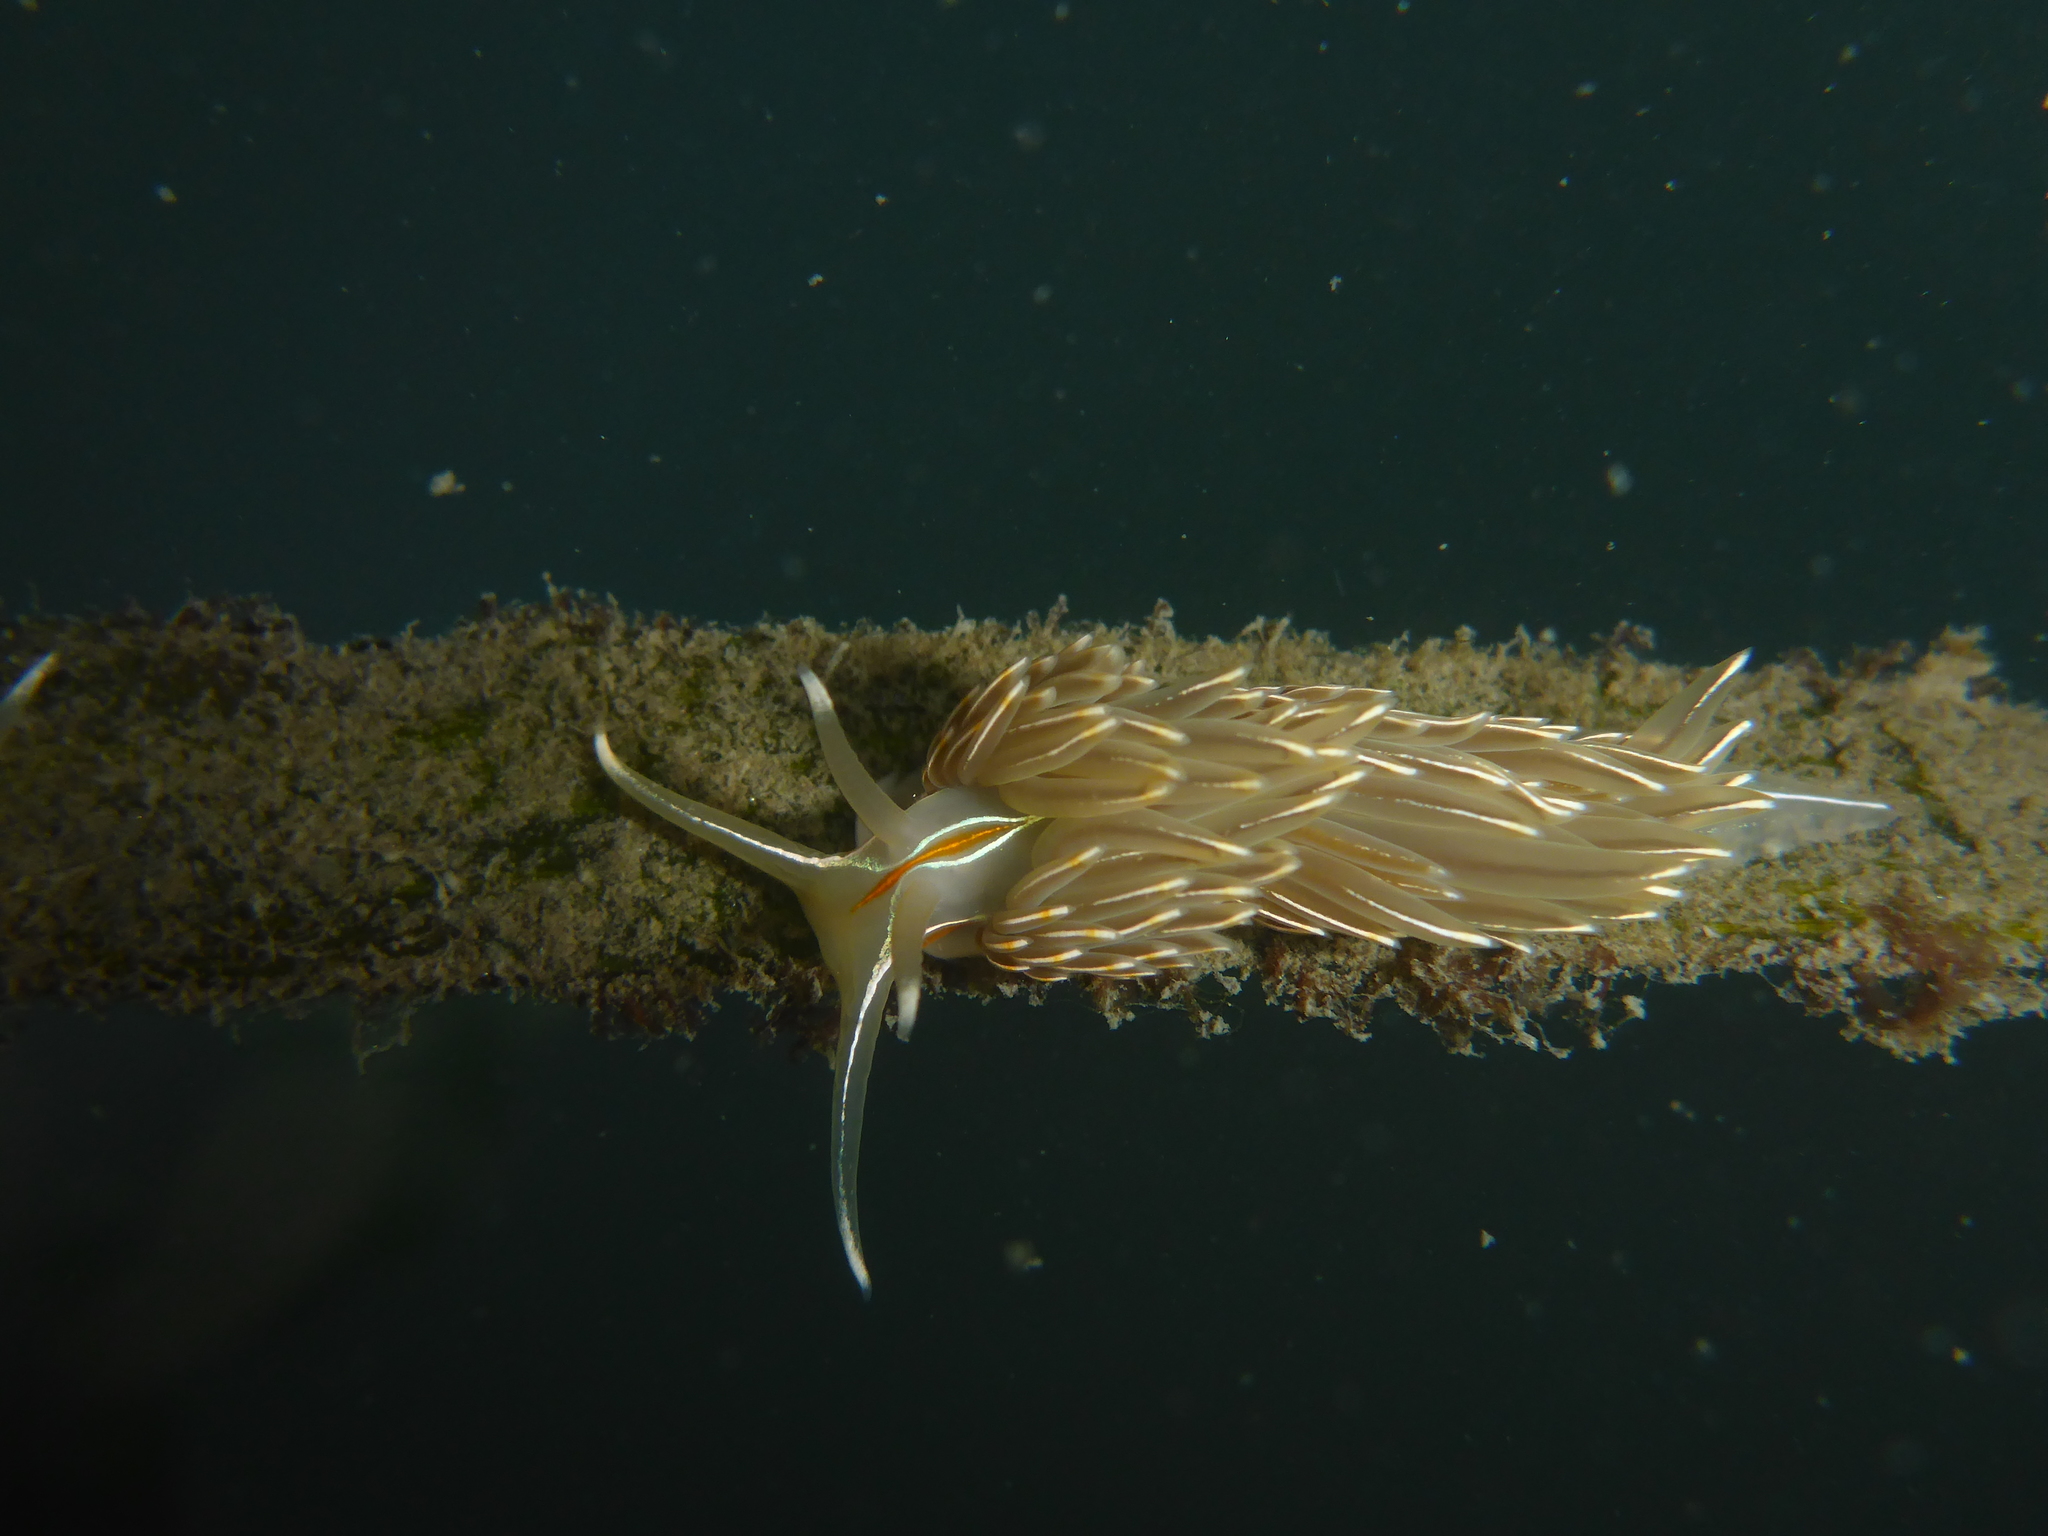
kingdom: Animalia
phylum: Mollusca
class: Gastropoda
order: Nudibranchia
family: Myrrhinidae
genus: Hermissenda
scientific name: Hermissenda crassicornis
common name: Hermissenda
